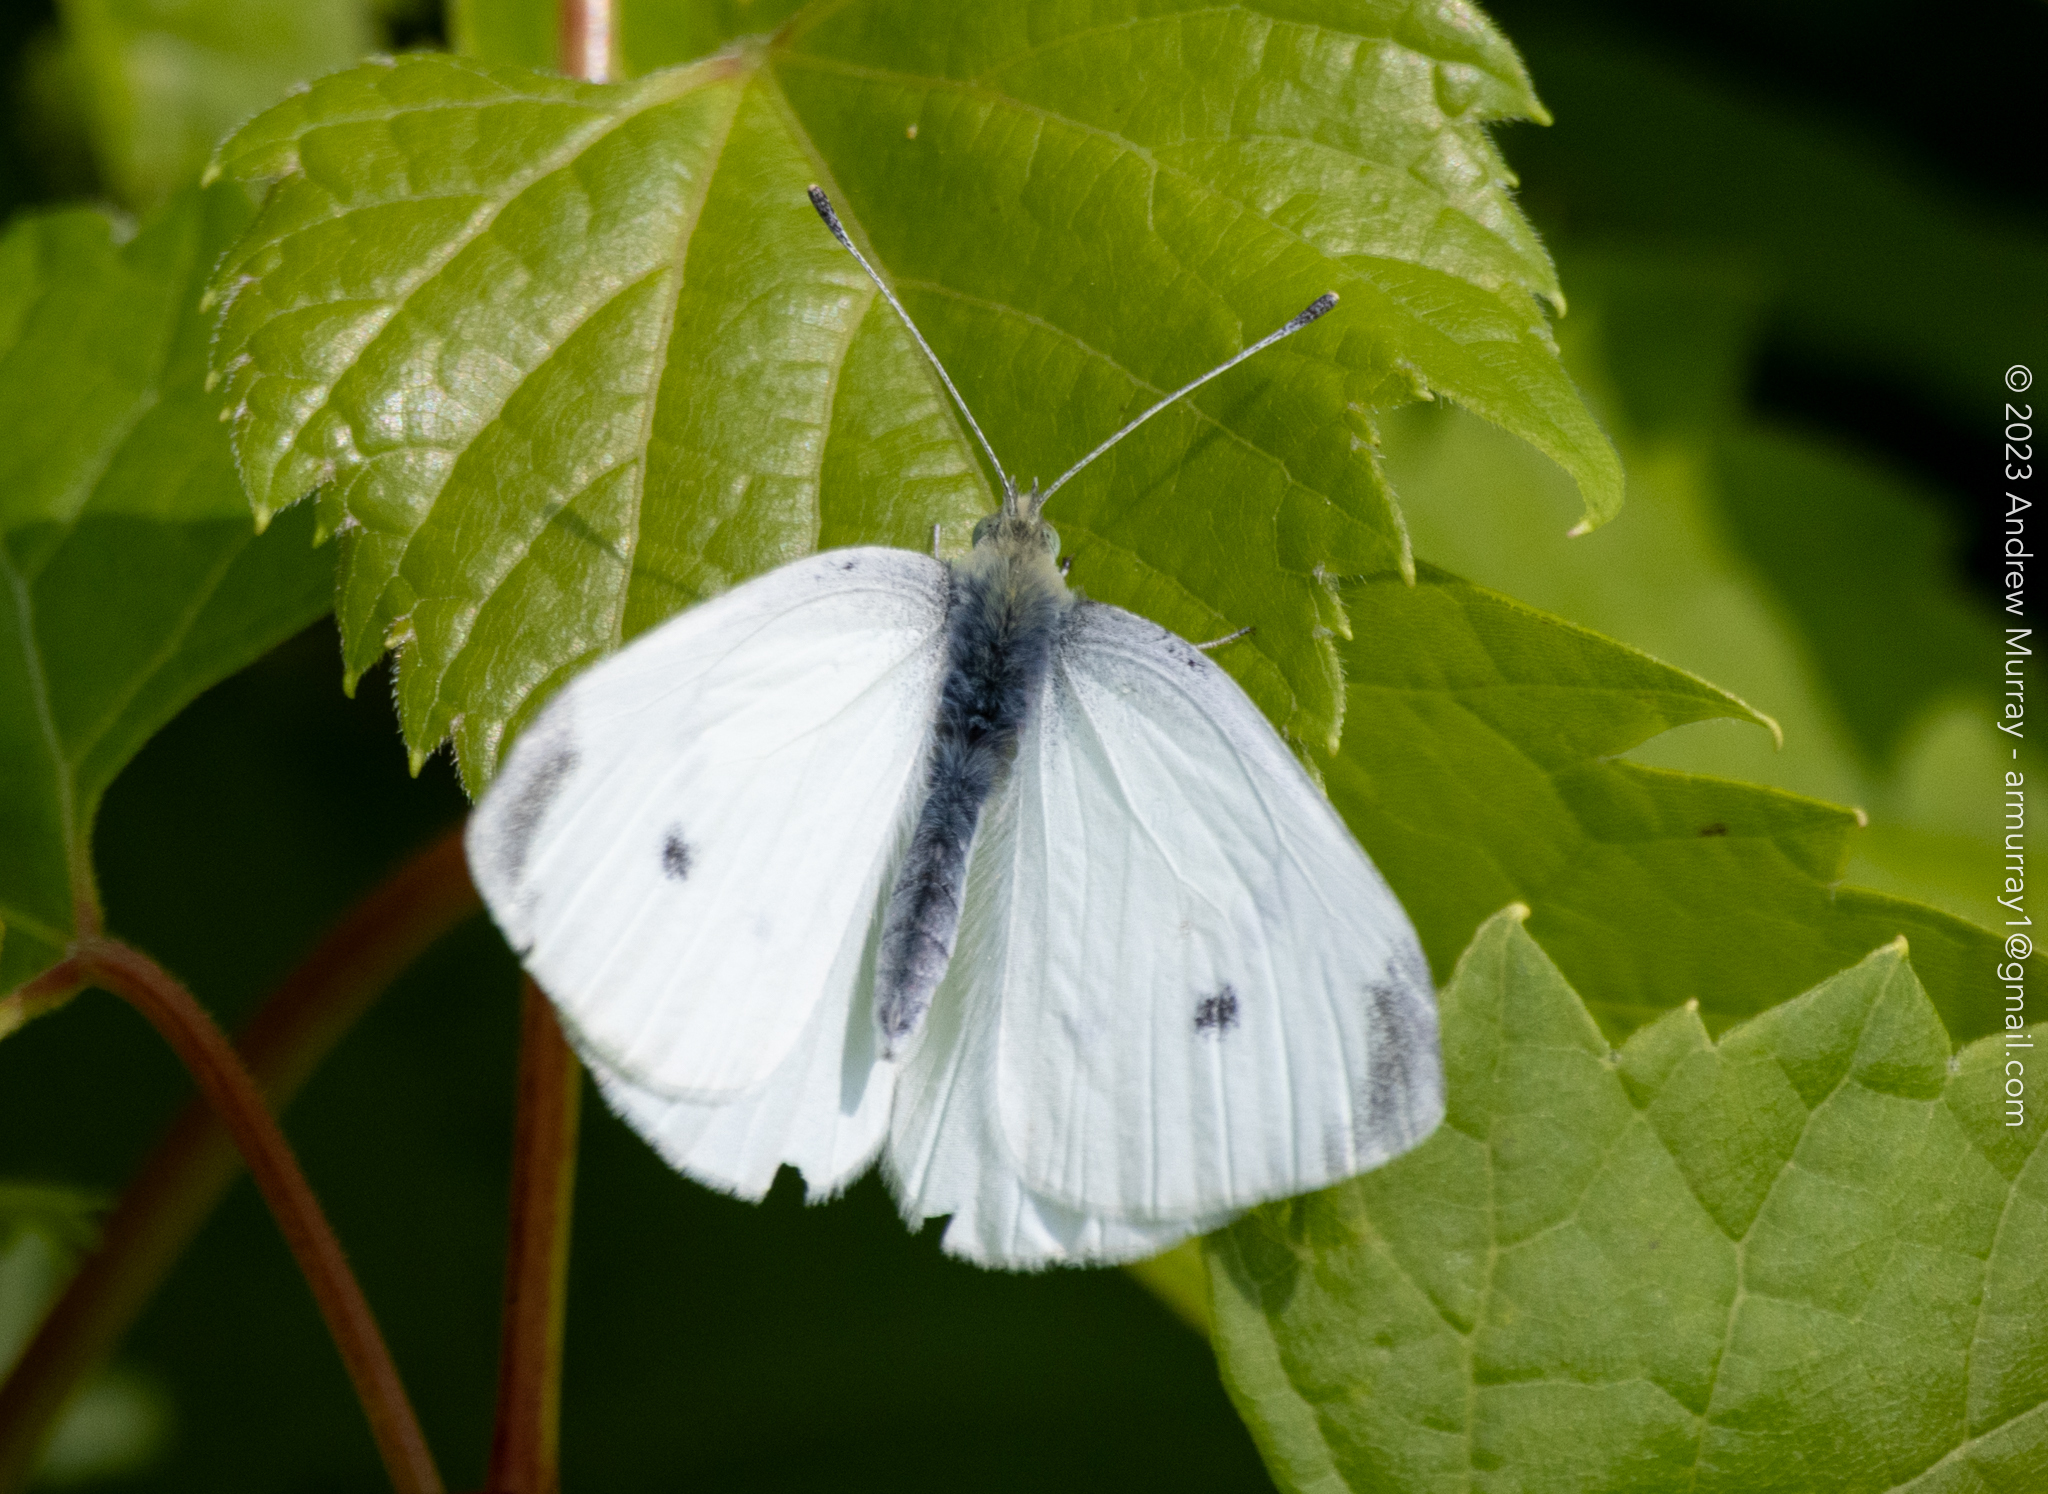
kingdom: Animalia
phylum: Arthropoda
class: Insecta
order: Lepidoptera
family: Pieridae
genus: Pieris
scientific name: Pieris rapae
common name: Small white
